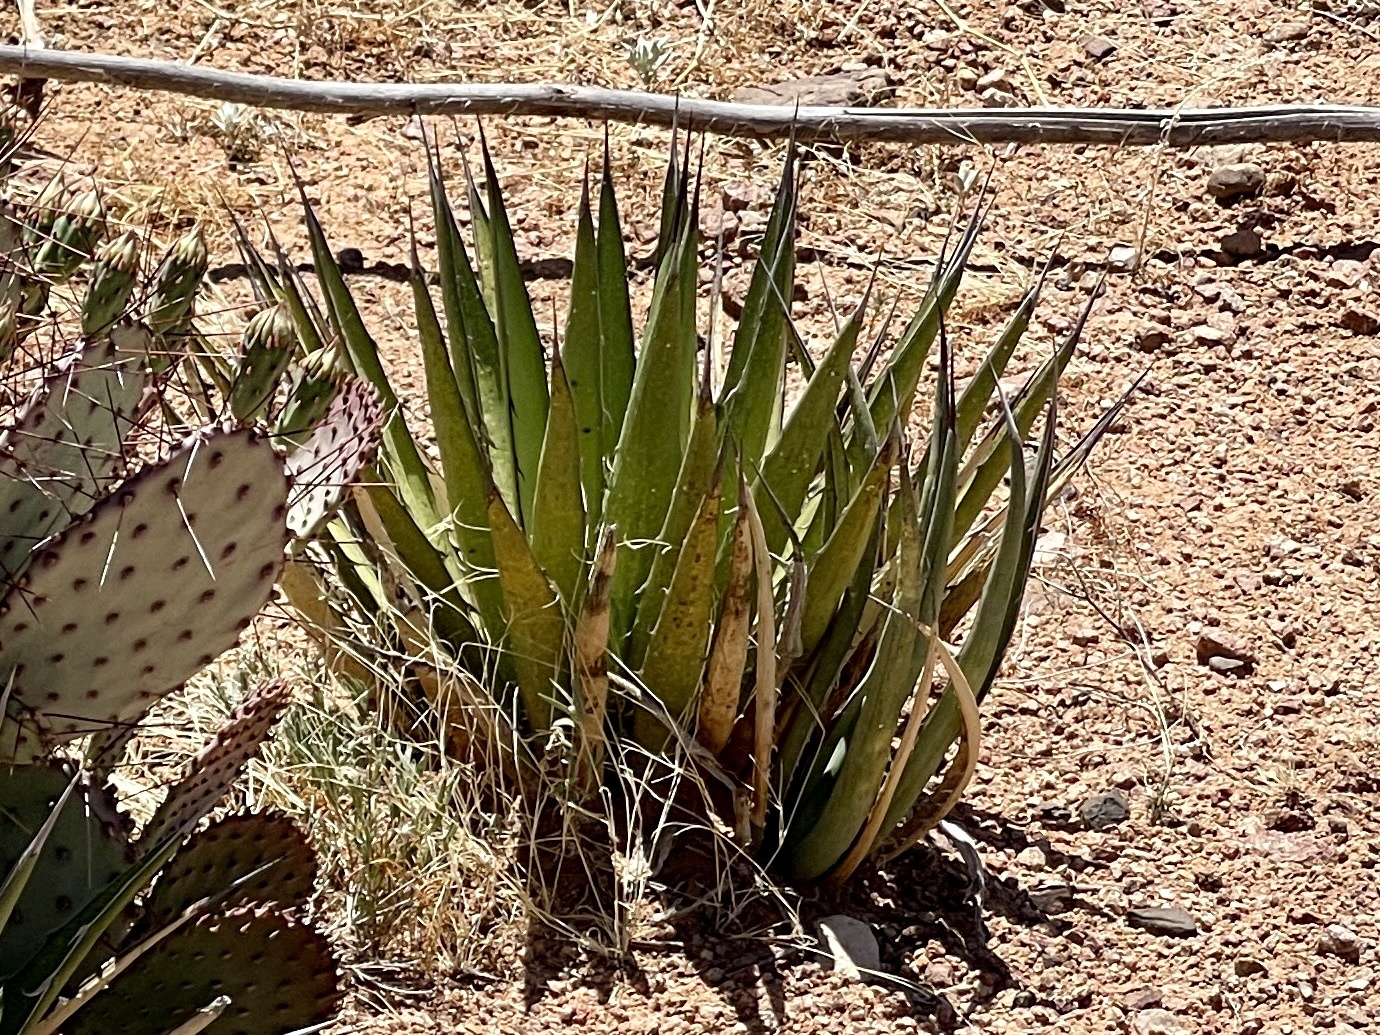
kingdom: Plantae
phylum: Tracheophyta
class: Liliopsida
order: Asparagales
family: Asparagaceae
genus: Agave
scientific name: Agave lechuguilla
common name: Lecheguilla agave
